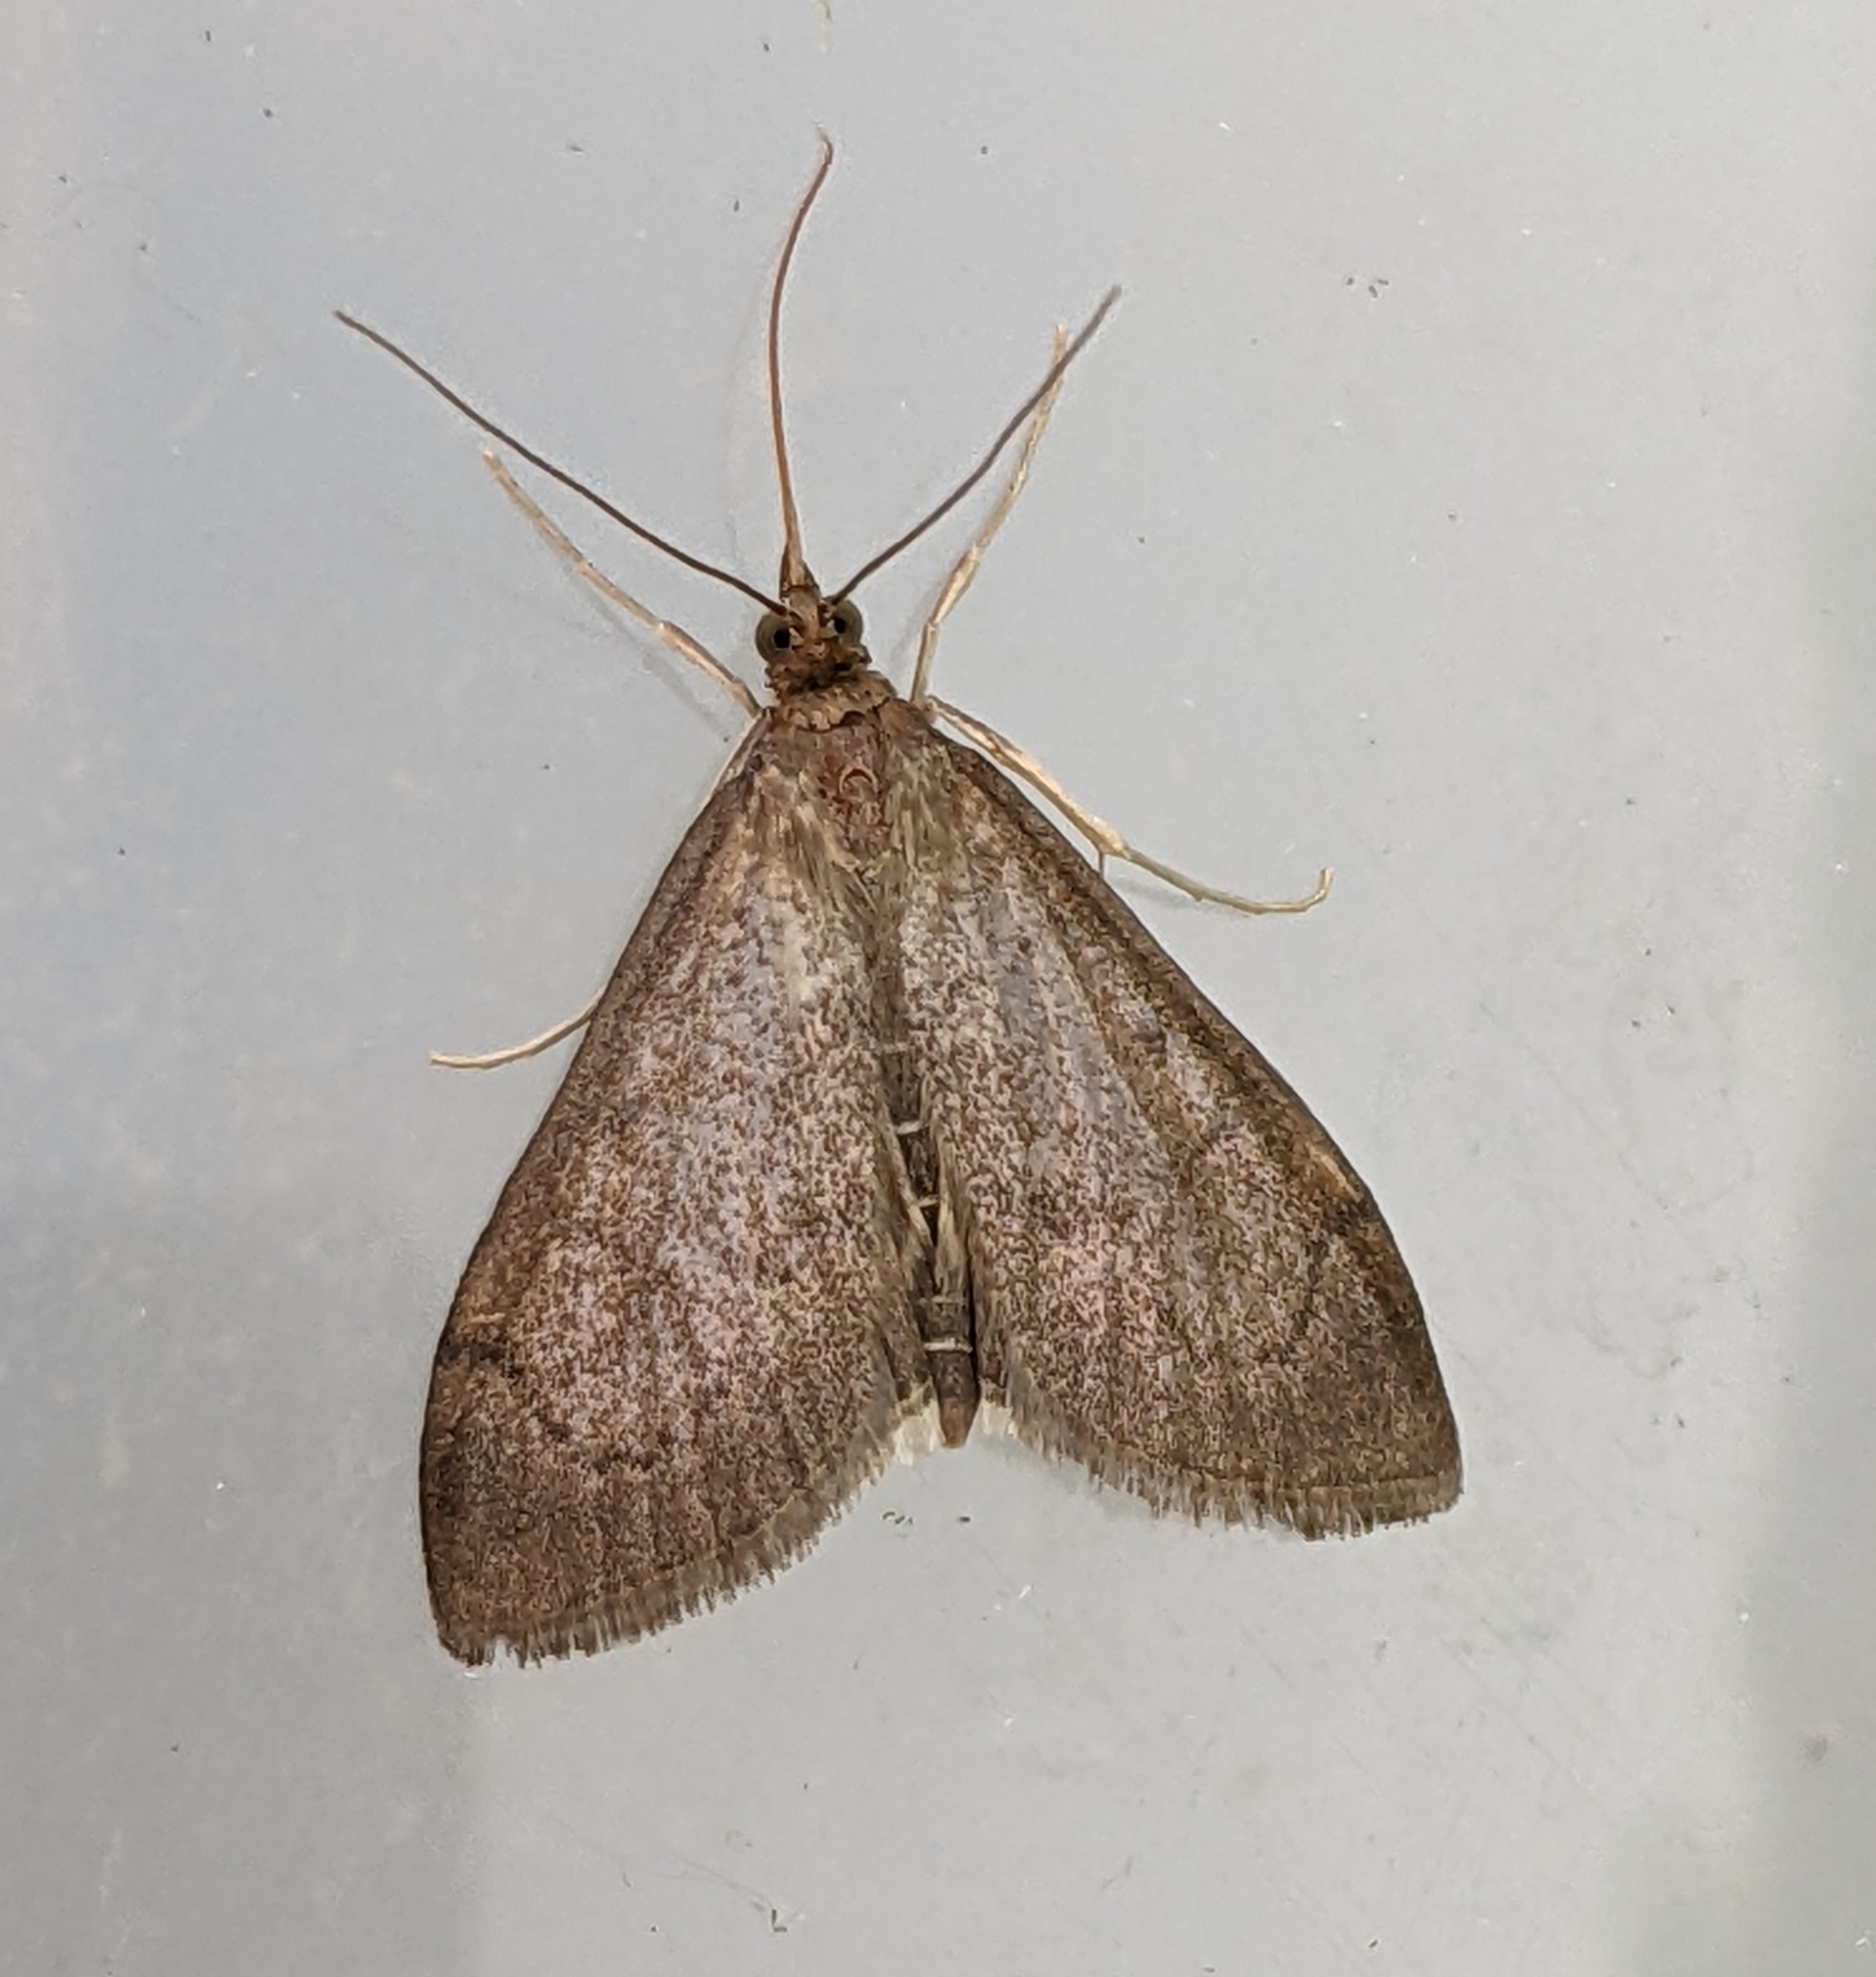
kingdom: Animalia
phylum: Arthropoda
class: Insecta
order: Lepidoptera
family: Crambidae
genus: Saucrobotys
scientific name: Saucrobotys futilalis
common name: Dogbane saucrobotys moth
